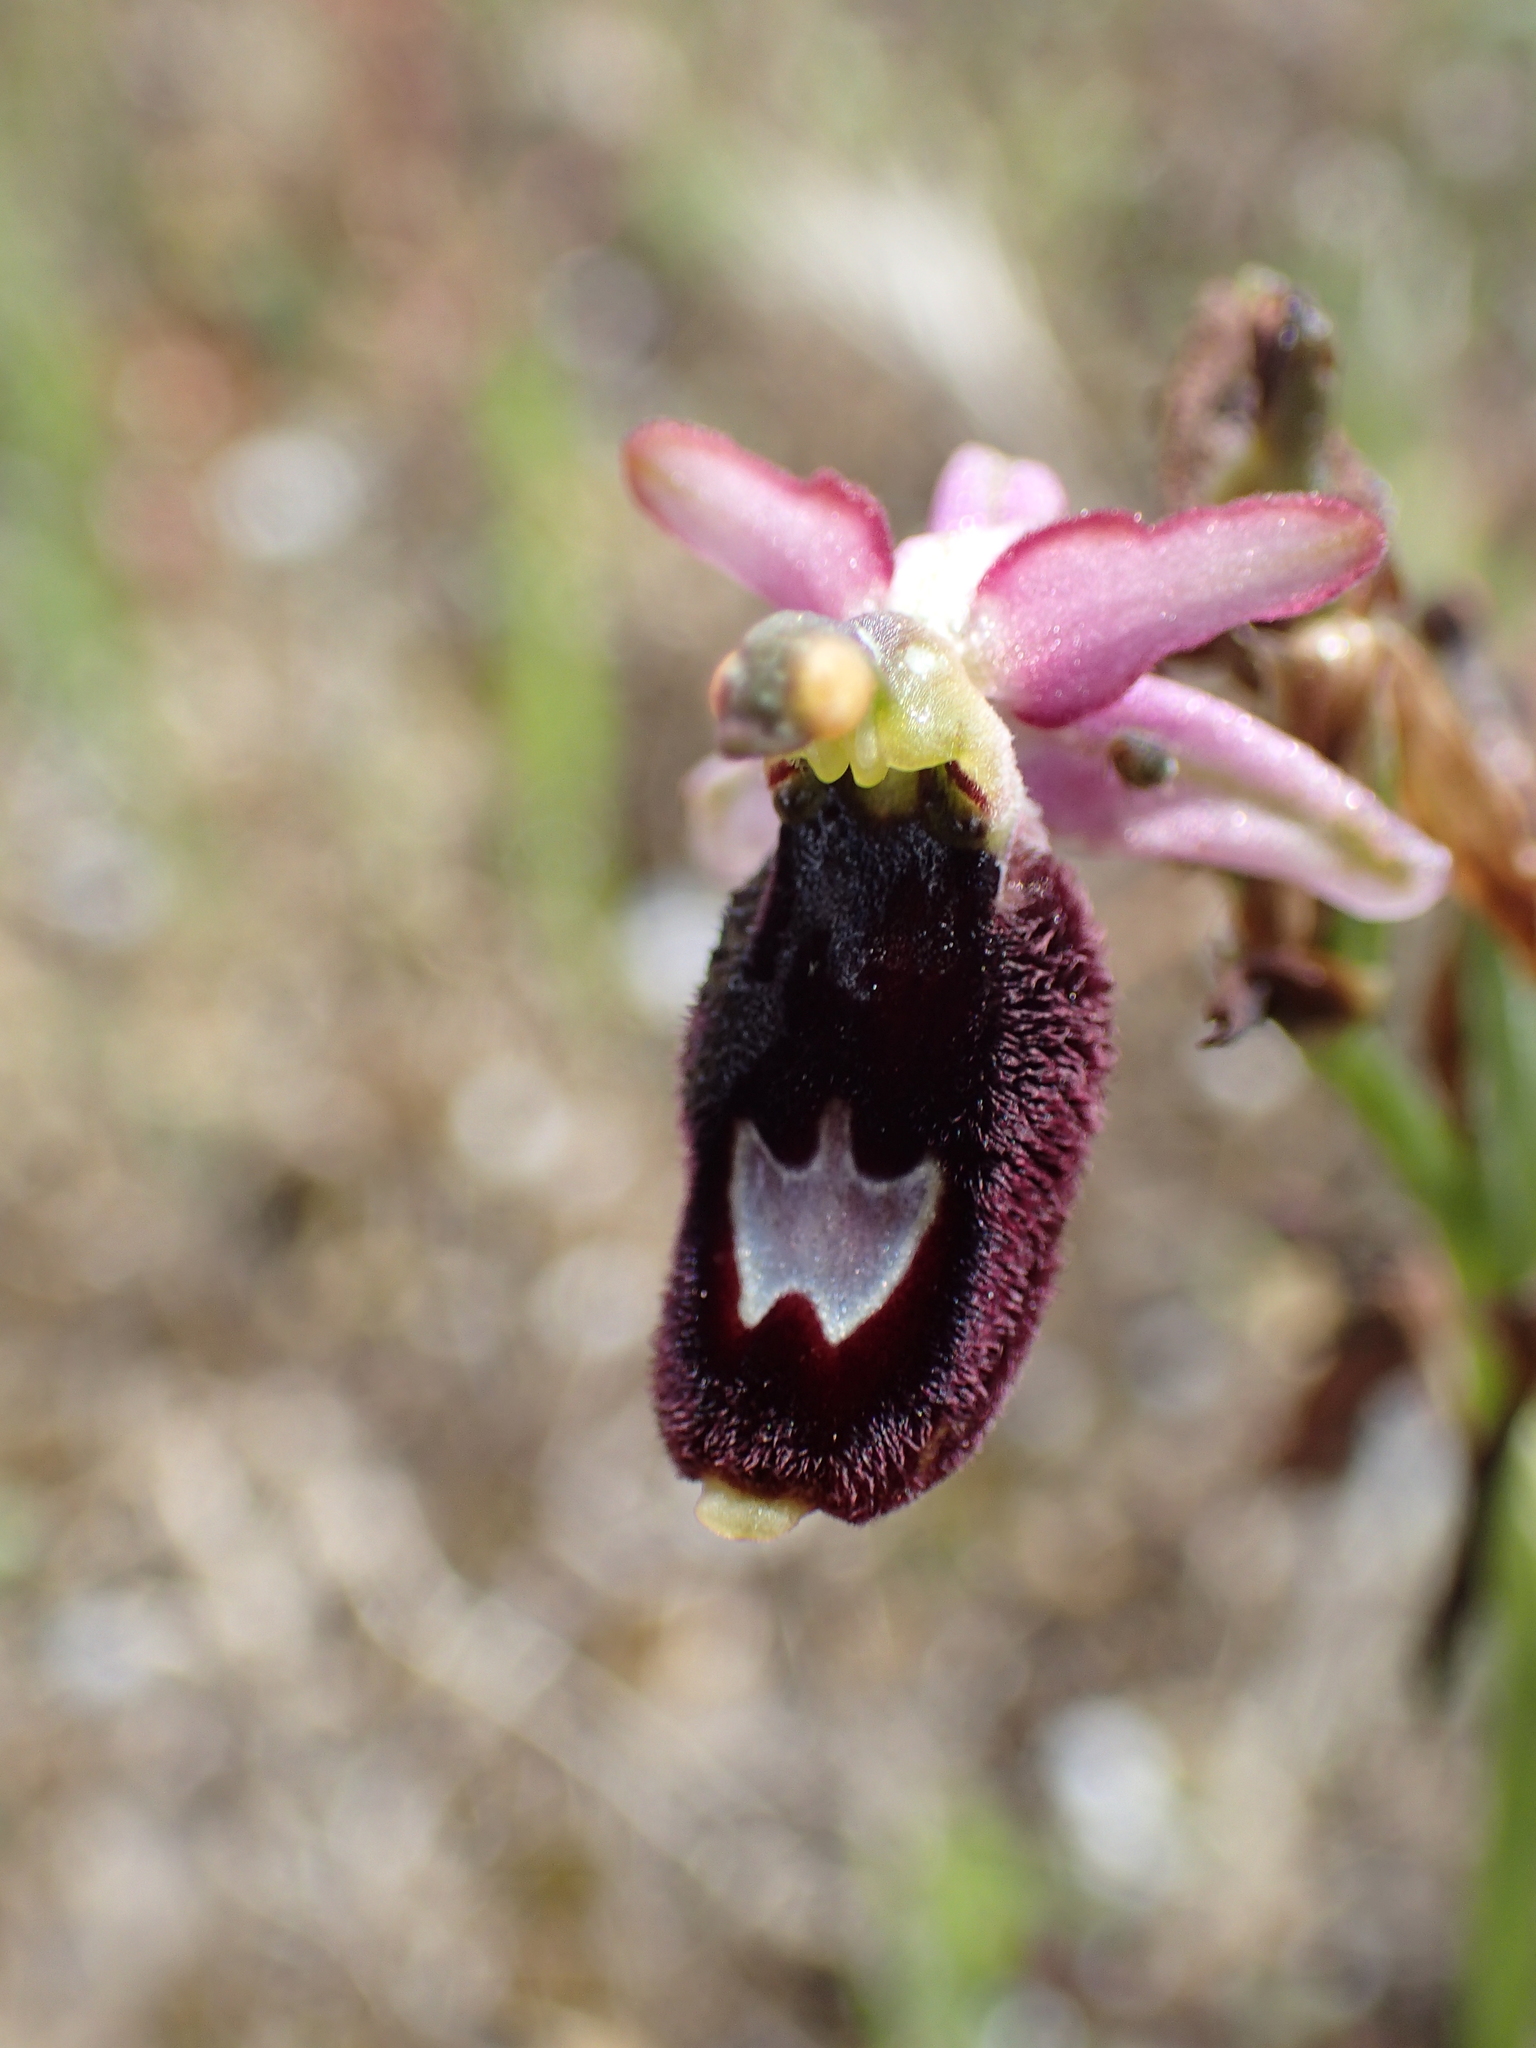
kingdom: Plantae
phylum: Tracheophyta
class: Liliopsida
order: Asparagales
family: Orchidaceae
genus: Ophrys
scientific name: Ophrys flavicans
